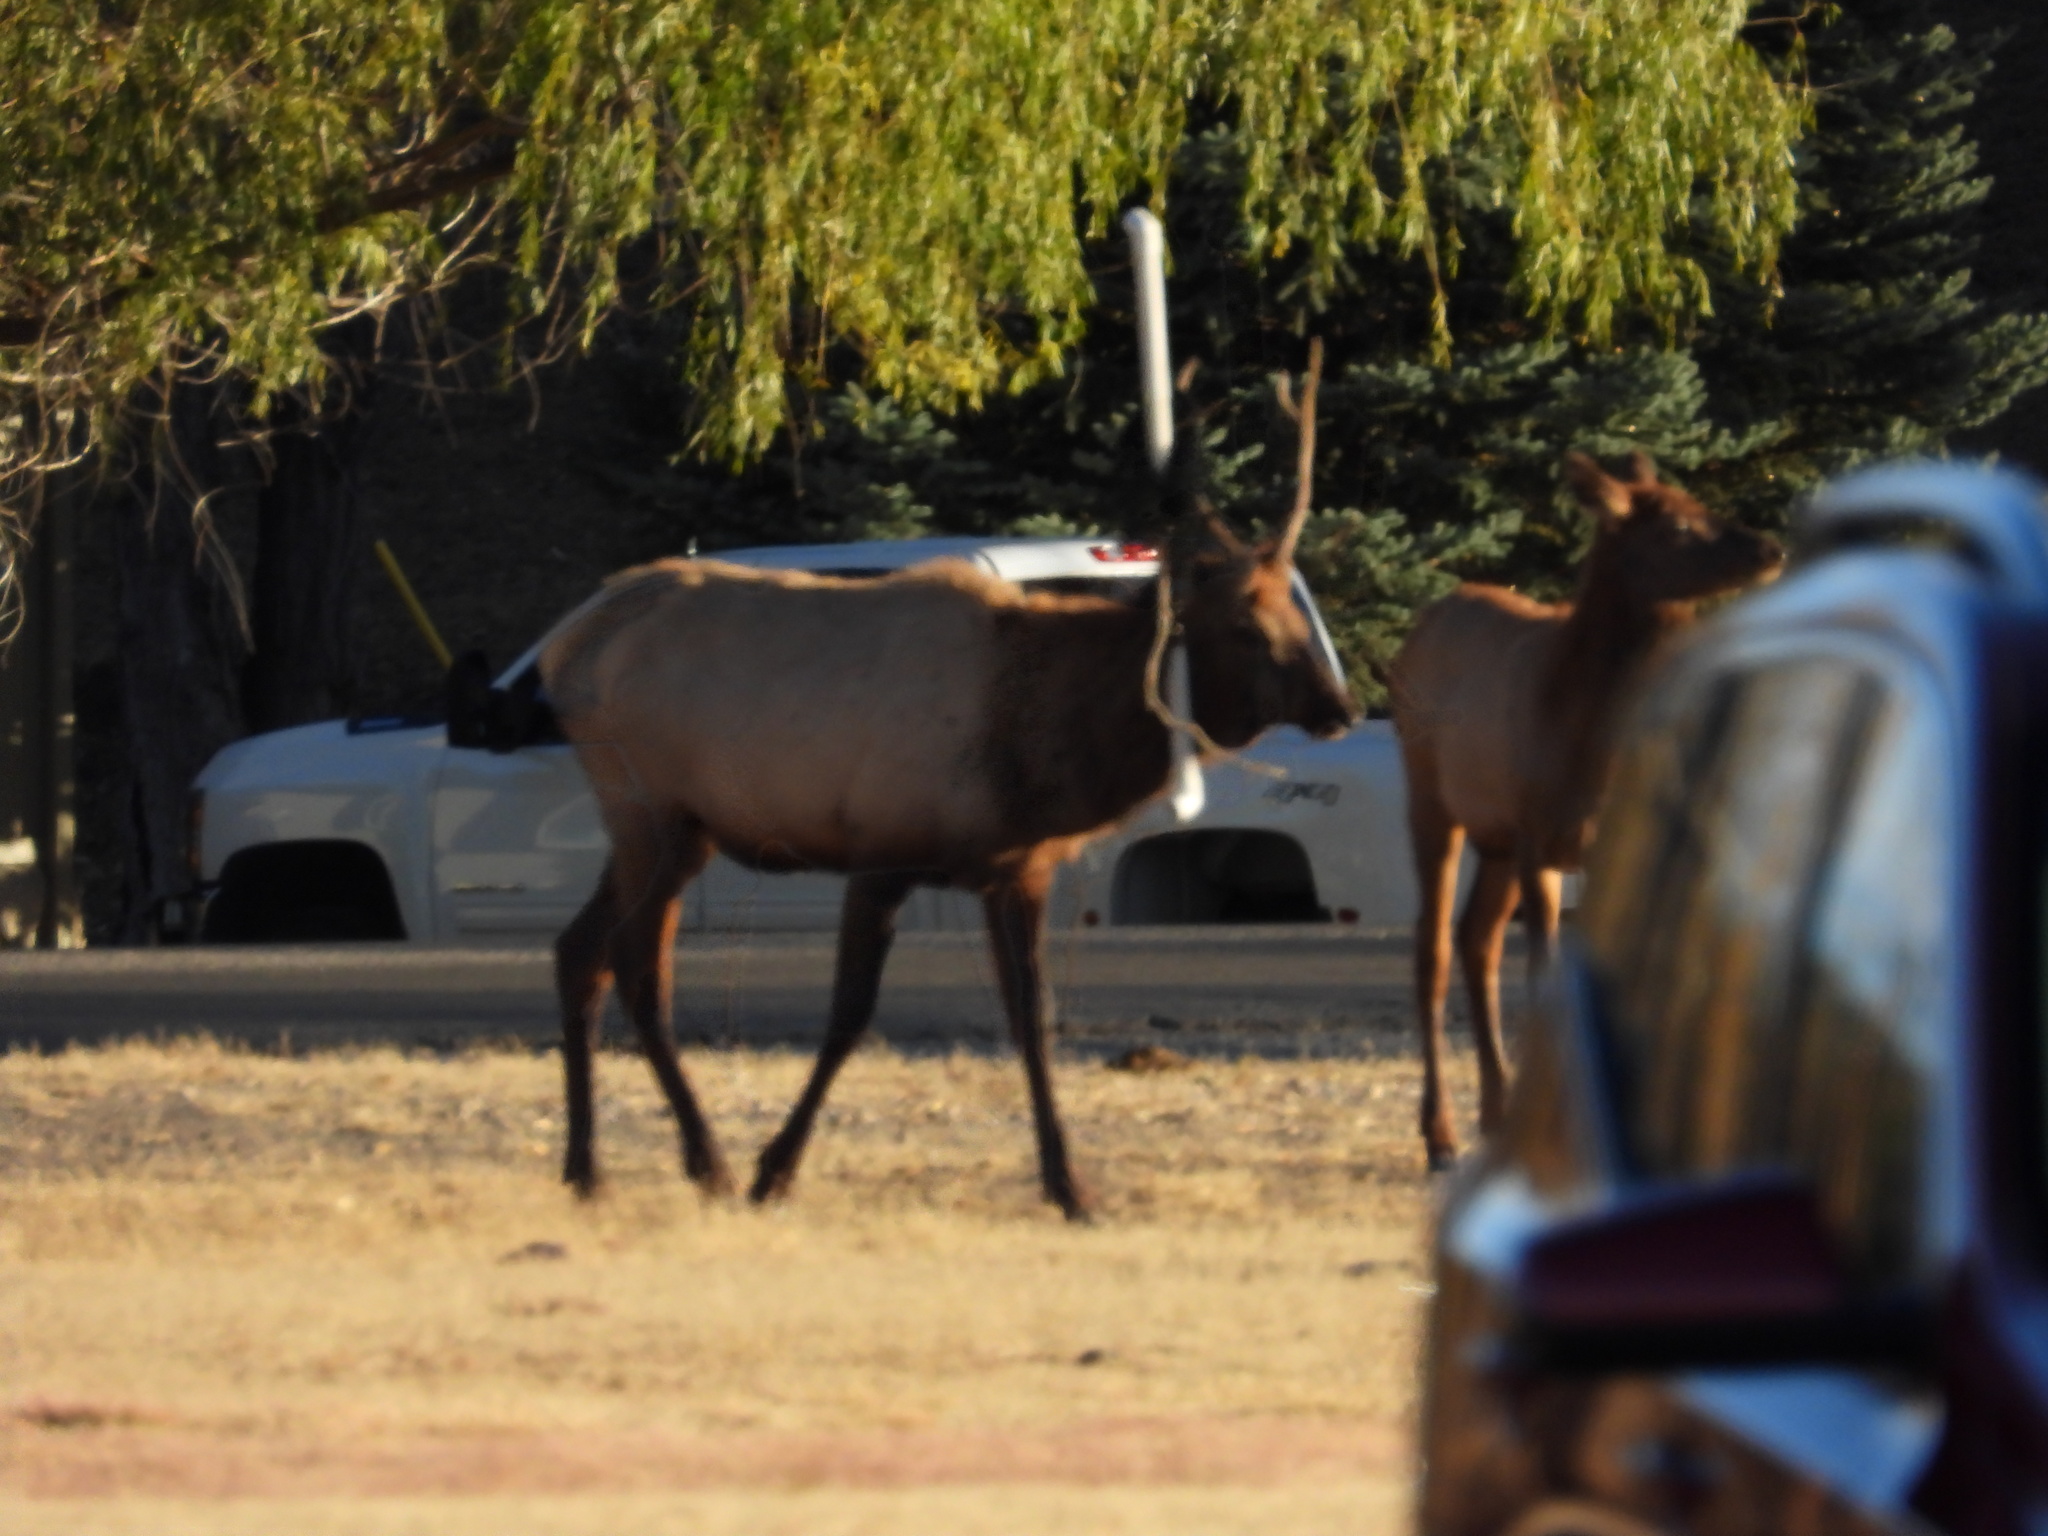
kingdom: Animalia
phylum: Chordata
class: Mammalia
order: Artiodactyla
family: Cervidae
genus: Cervus
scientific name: Cervus elaphus
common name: Red deer
